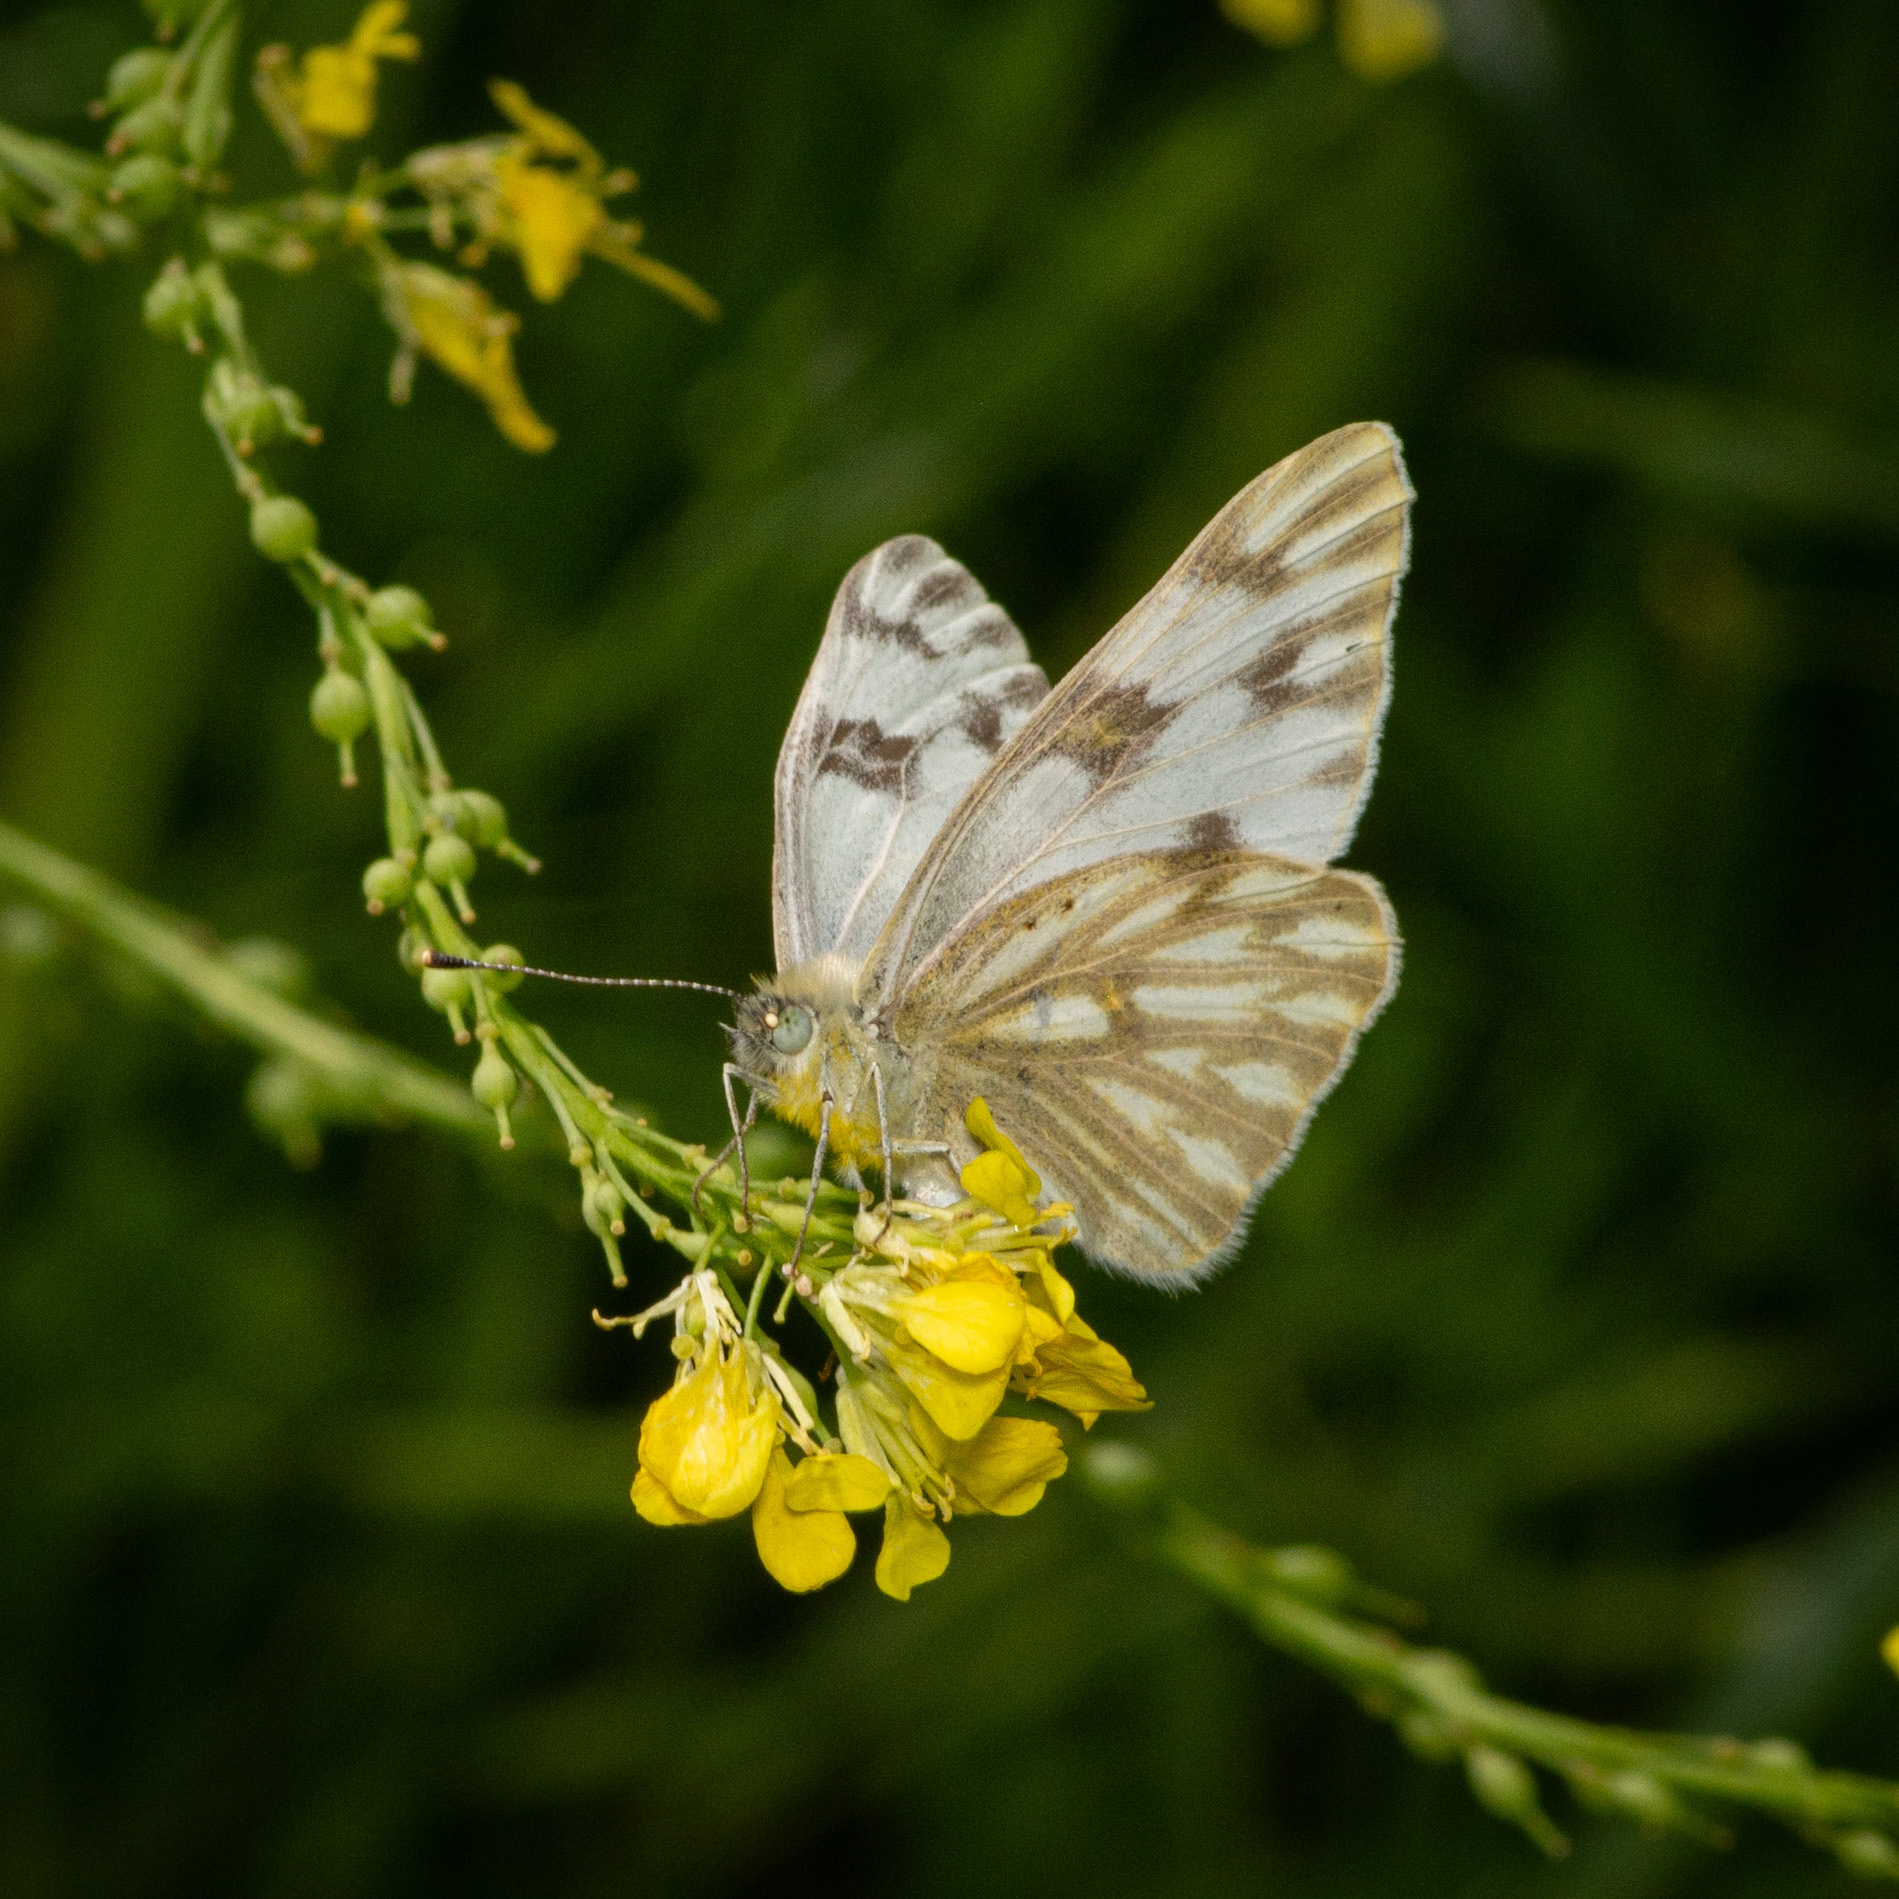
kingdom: Animalia
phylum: Arthropoda
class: Insecta
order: Lepidoptera
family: Pieridae
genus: Pontia
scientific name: Pontia protodice
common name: Checkered white
